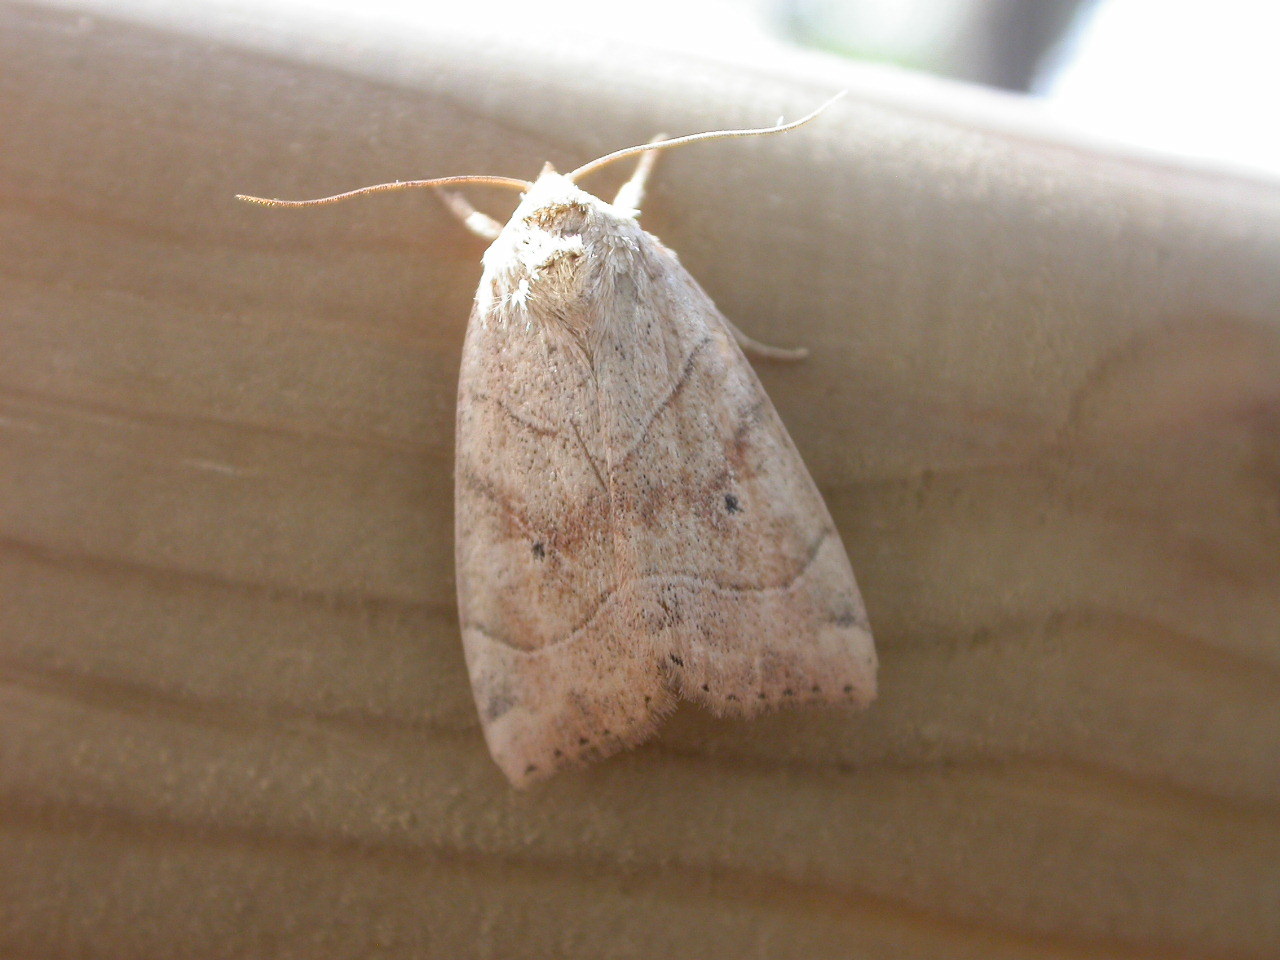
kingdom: Animalia
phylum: Arthropoda
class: Insecta
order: Lepidoptera
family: Noctuidae
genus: Cosmia
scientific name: Cosmia trapezina
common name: Dun-bar
